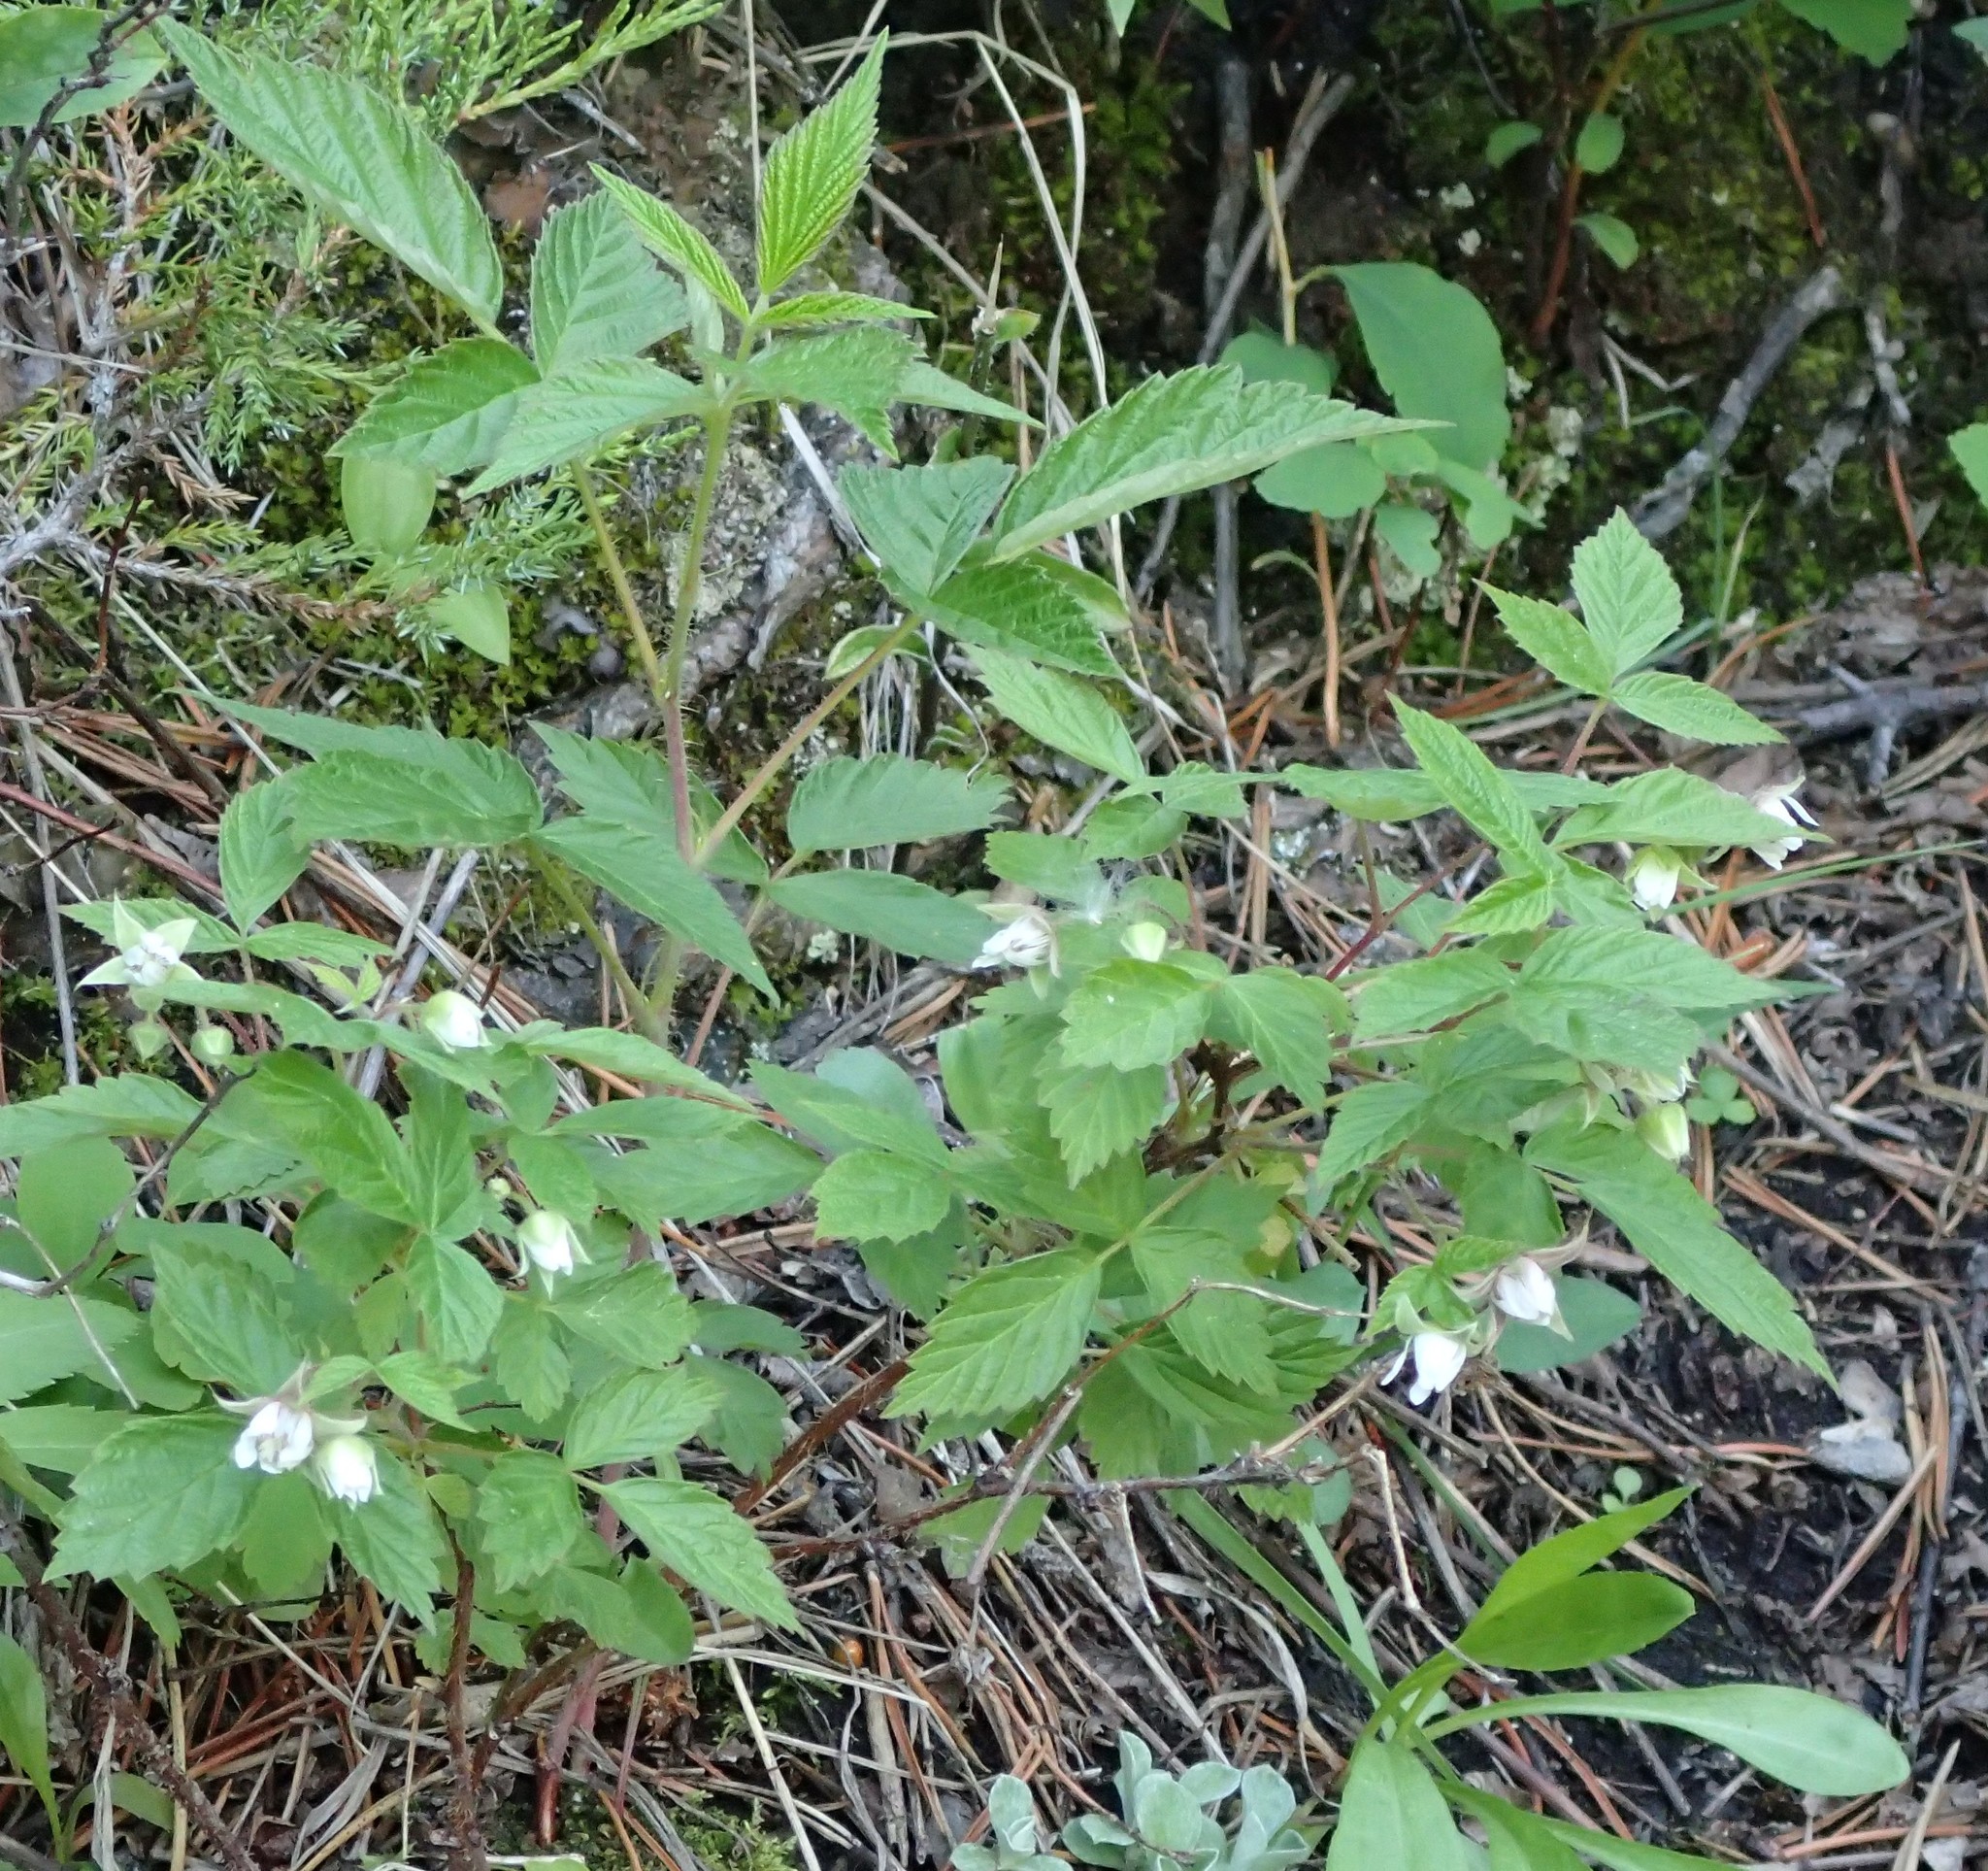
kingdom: Plantae
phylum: Tracheophyta
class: Magnoliopsida
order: Rosales
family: Rosaceae
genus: Rubus
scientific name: Rubus idaeus
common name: Raspberry
